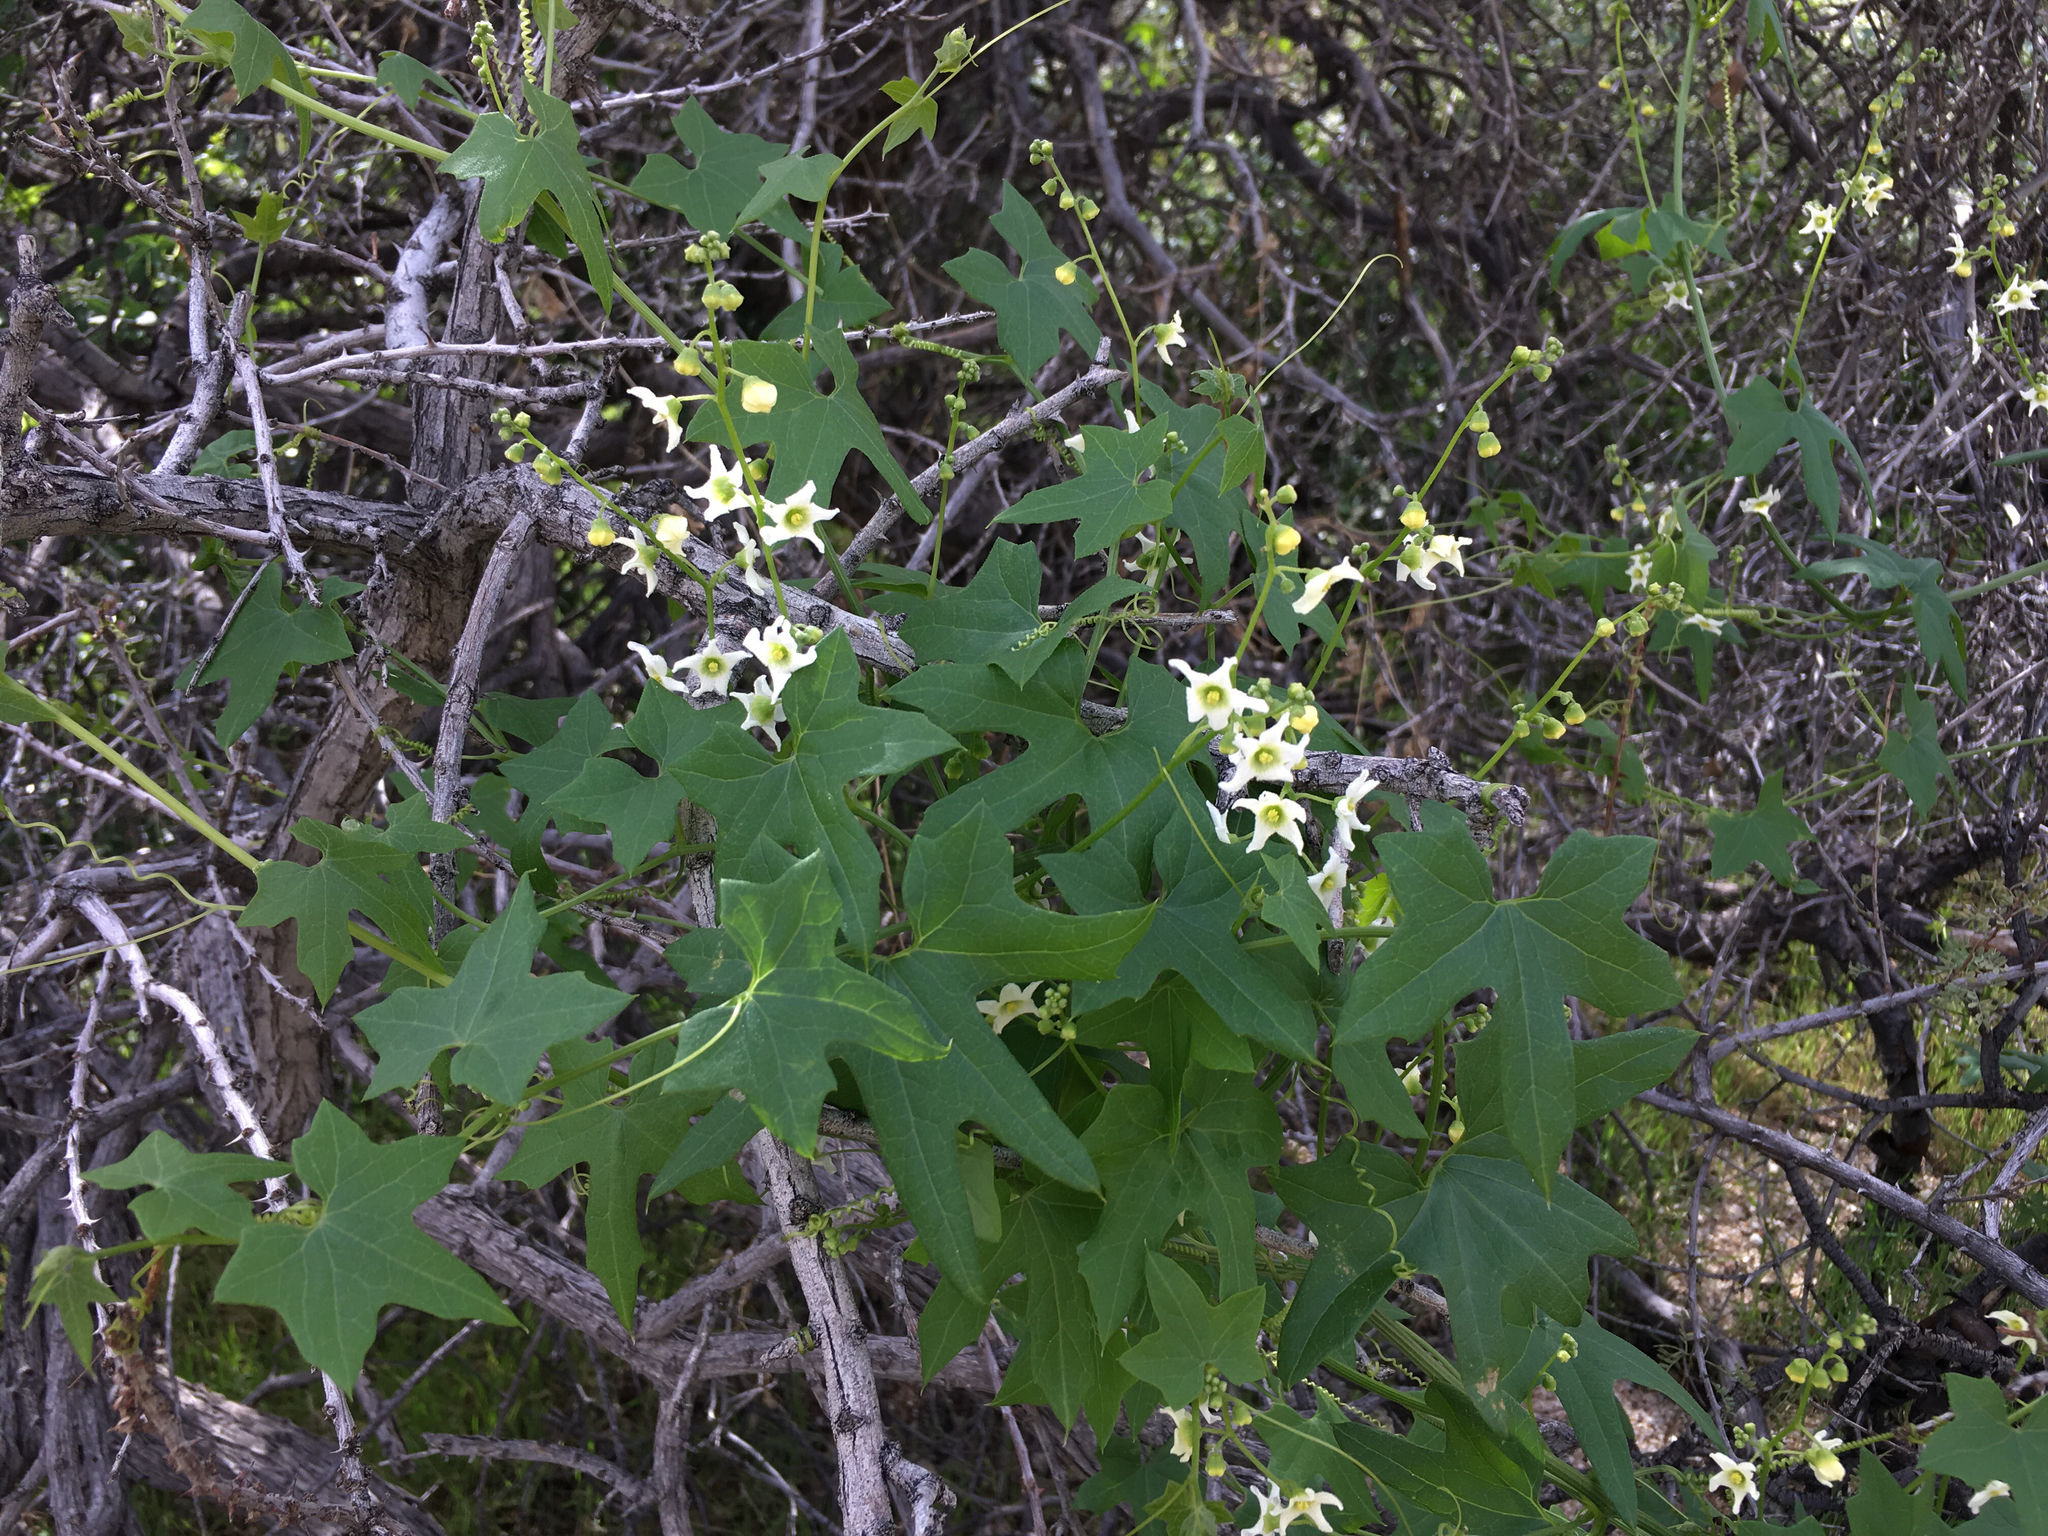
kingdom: Plantae
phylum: Tracheophyta
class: Magnoliopsida
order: Cucurbitales
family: Cucurbitaceae
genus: Marah
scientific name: Marah macrocarpa
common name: Cucamonga manroot
